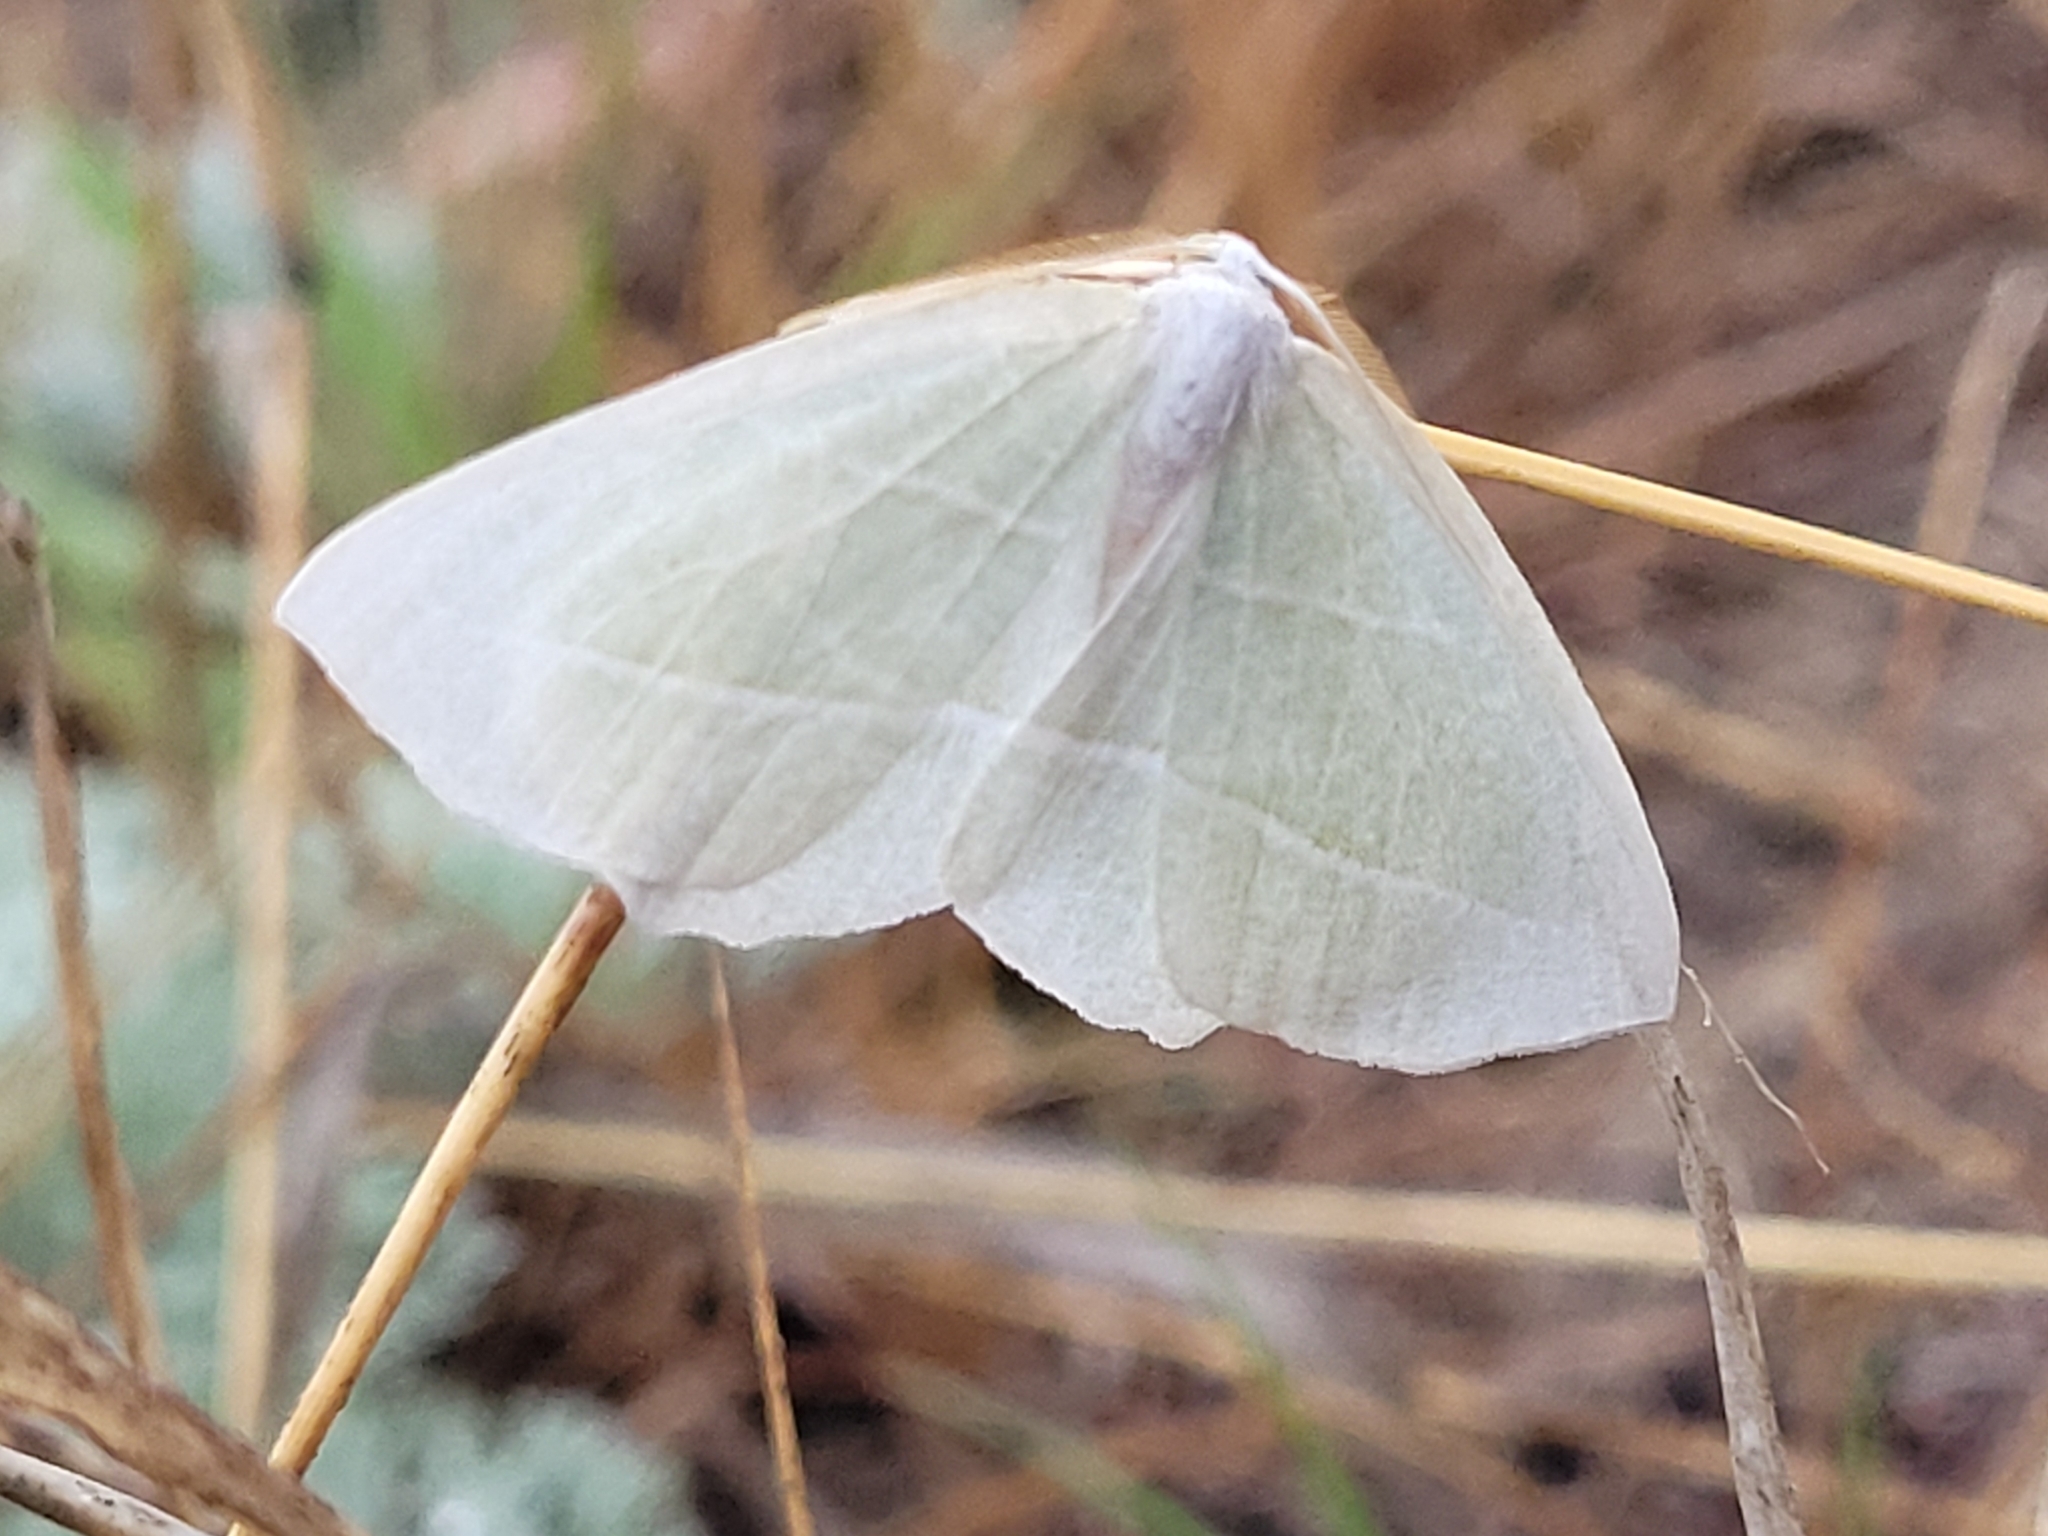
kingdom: Animalia
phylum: Arthropoda
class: Insecta
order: Lepidoptera
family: Geometridae
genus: Campaea
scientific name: Campaea perlata
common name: Fringed looper
